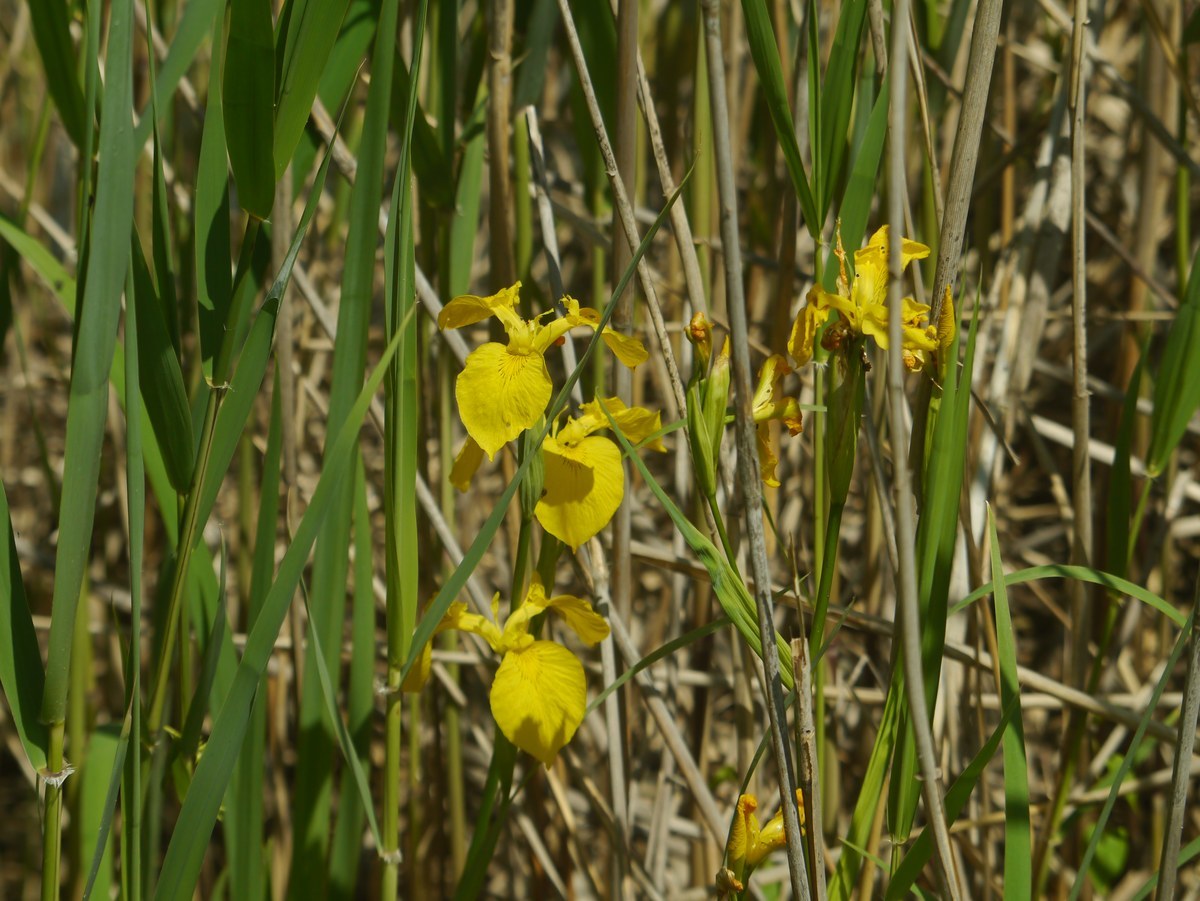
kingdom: Plantae
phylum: Tracheophyta
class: Liliopsida
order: Asparagales
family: Iridaceae
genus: Iris
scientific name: Iris pseudacorus
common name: Yellow flag
